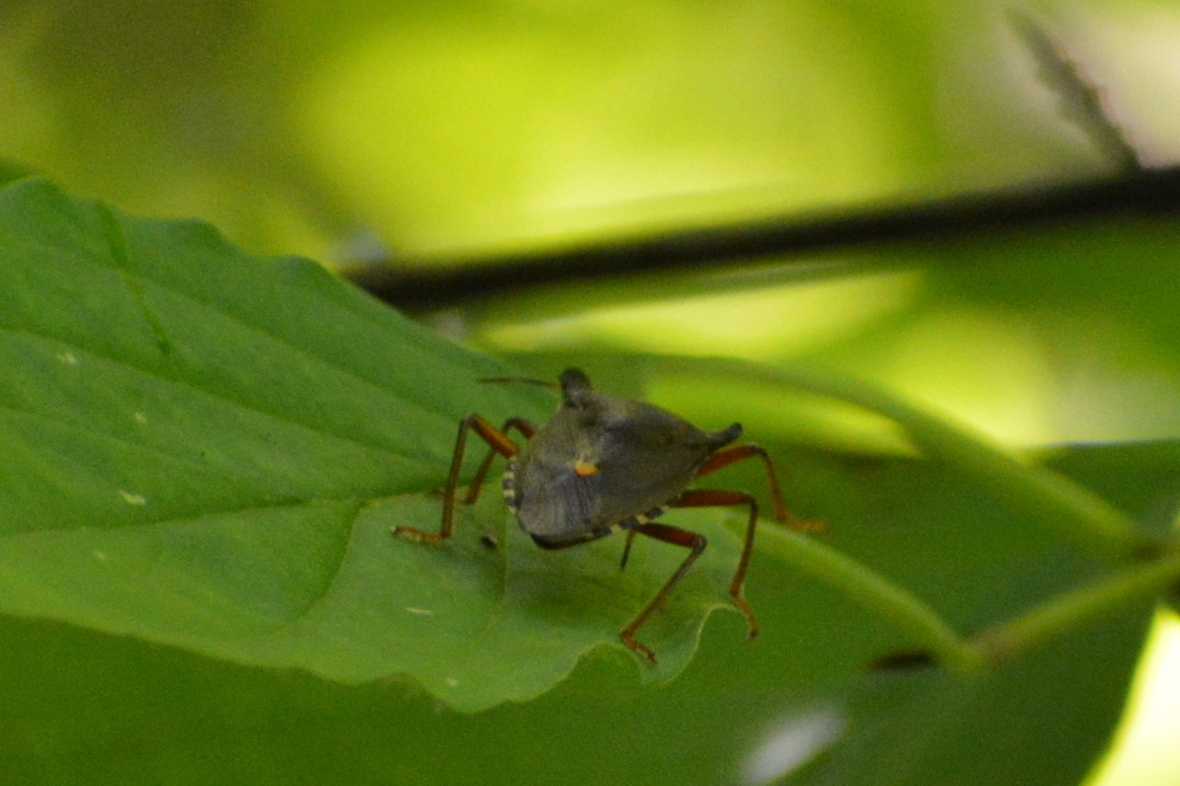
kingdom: Animalia
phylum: Arthropoda
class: Insecta
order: Hemiptera
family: Pentatomidae
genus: Pentatoma
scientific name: Pentatoma rufipes
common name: Forest bug
